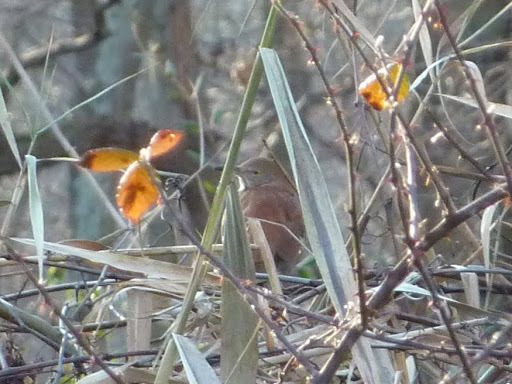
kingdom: Animalia
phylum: Chordata
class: Aves
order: Passeriformes
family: Mimidae
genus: Toxostoma
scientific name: Toxostoma rufum
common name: Brown thrasher
